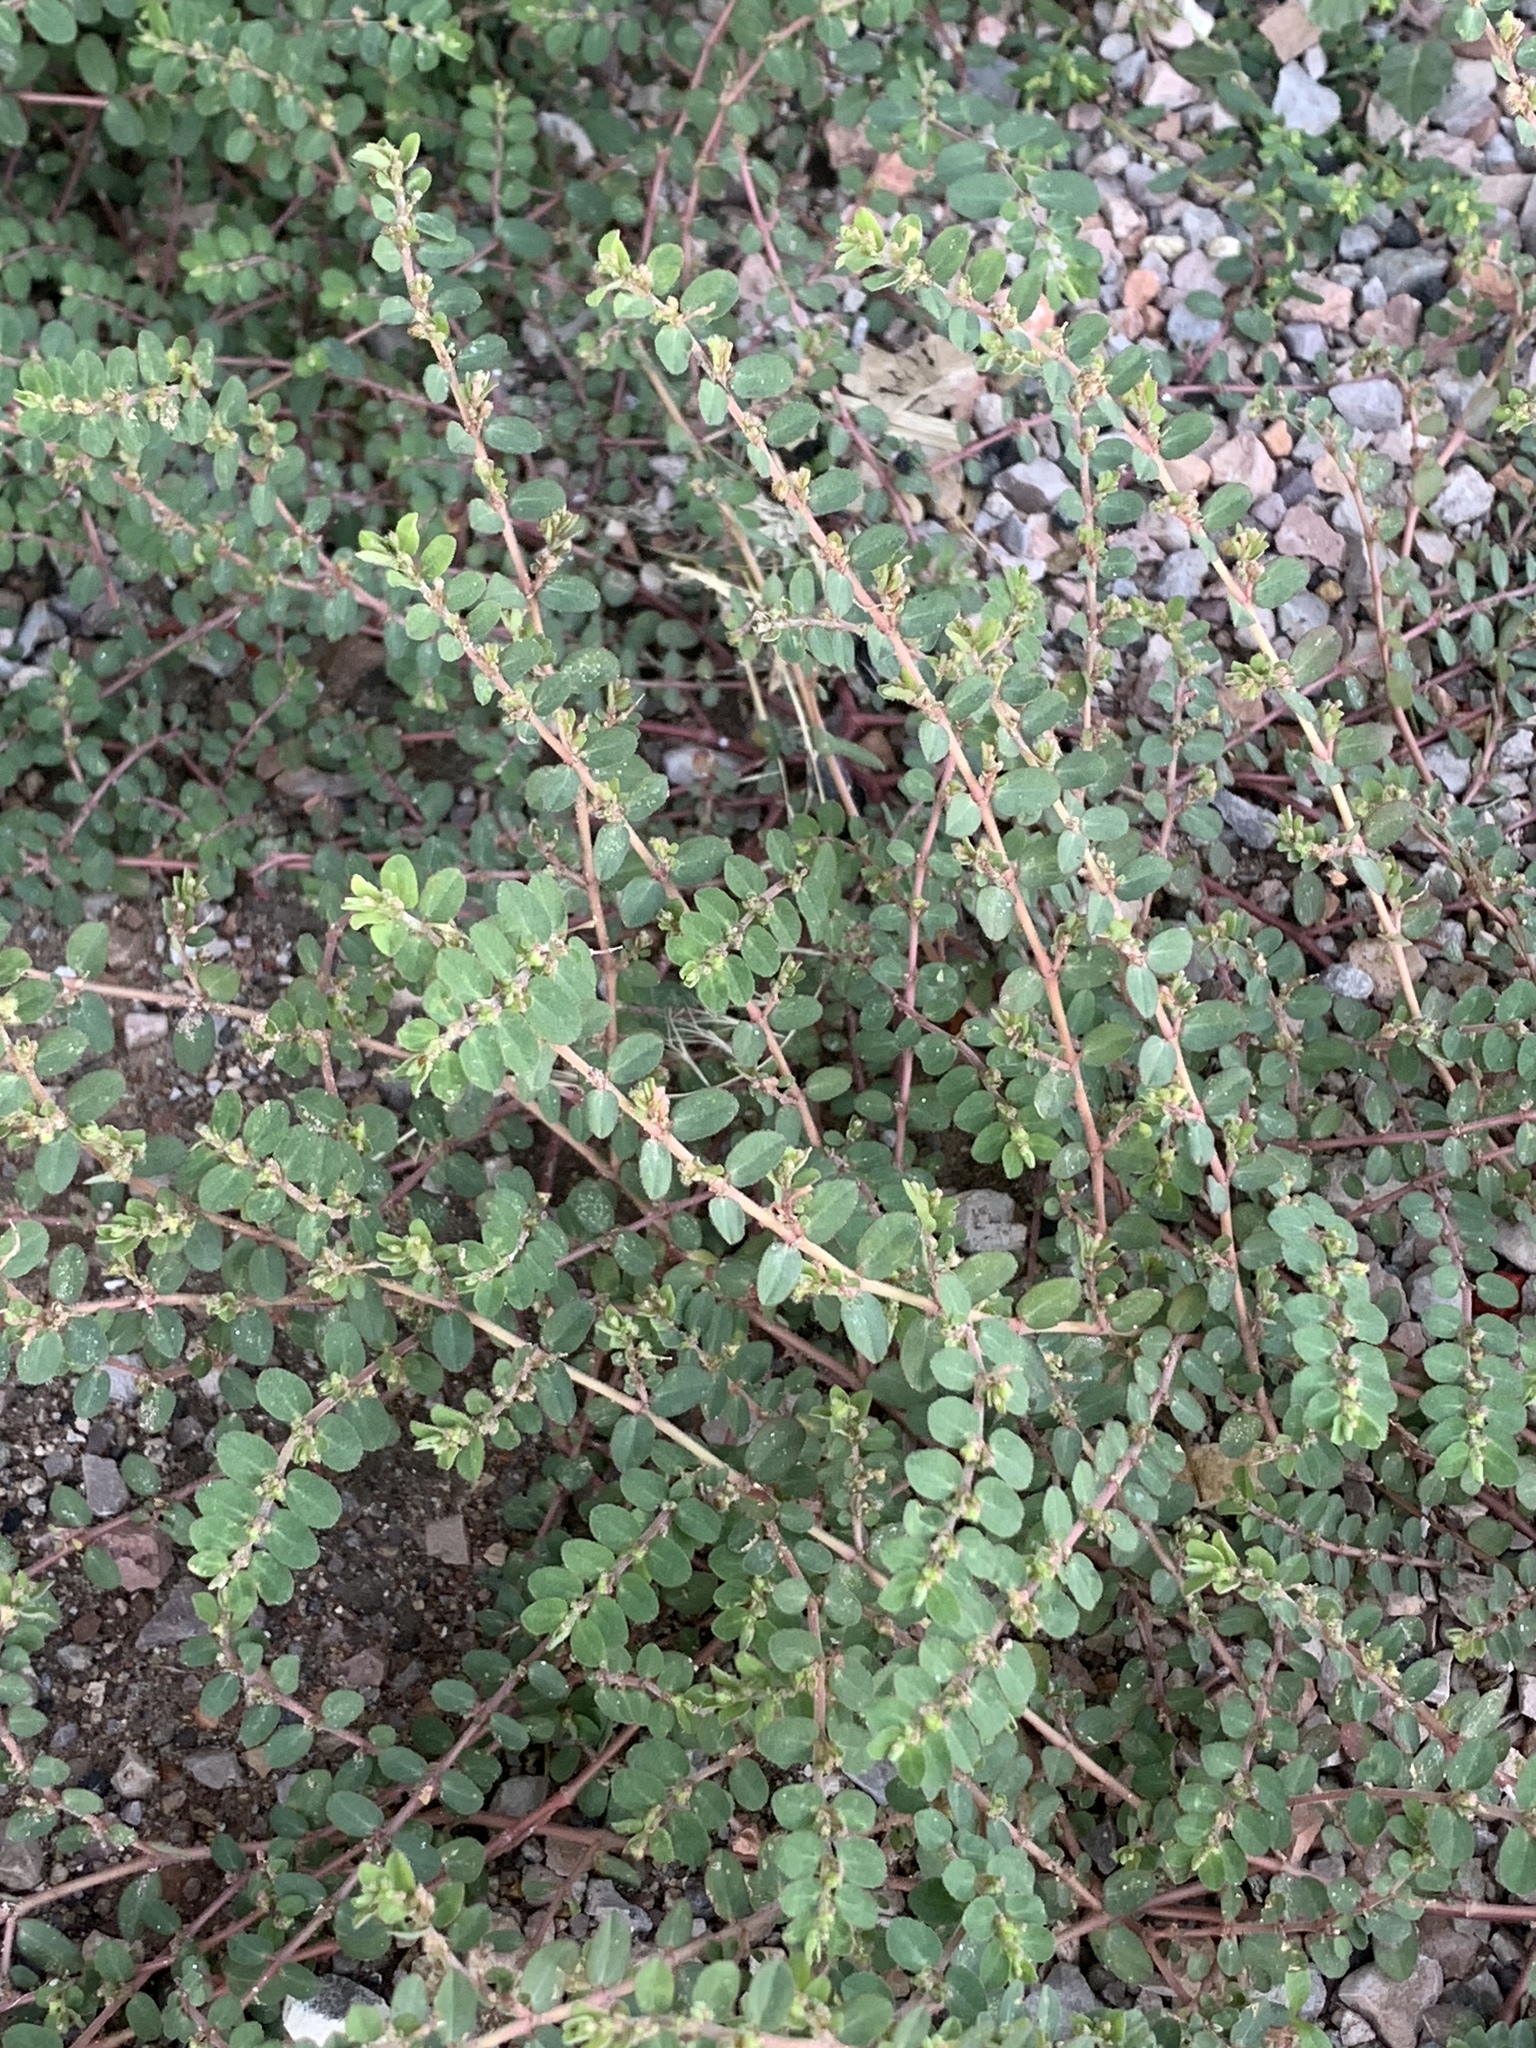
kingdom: Plantae
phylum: Tracheophyta
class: Magnoliopsida
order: Malpighiales
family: Euphorbiaceae
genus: Euphorbia
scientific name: Euphorbia prostrata
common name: Prostrate sandmat
